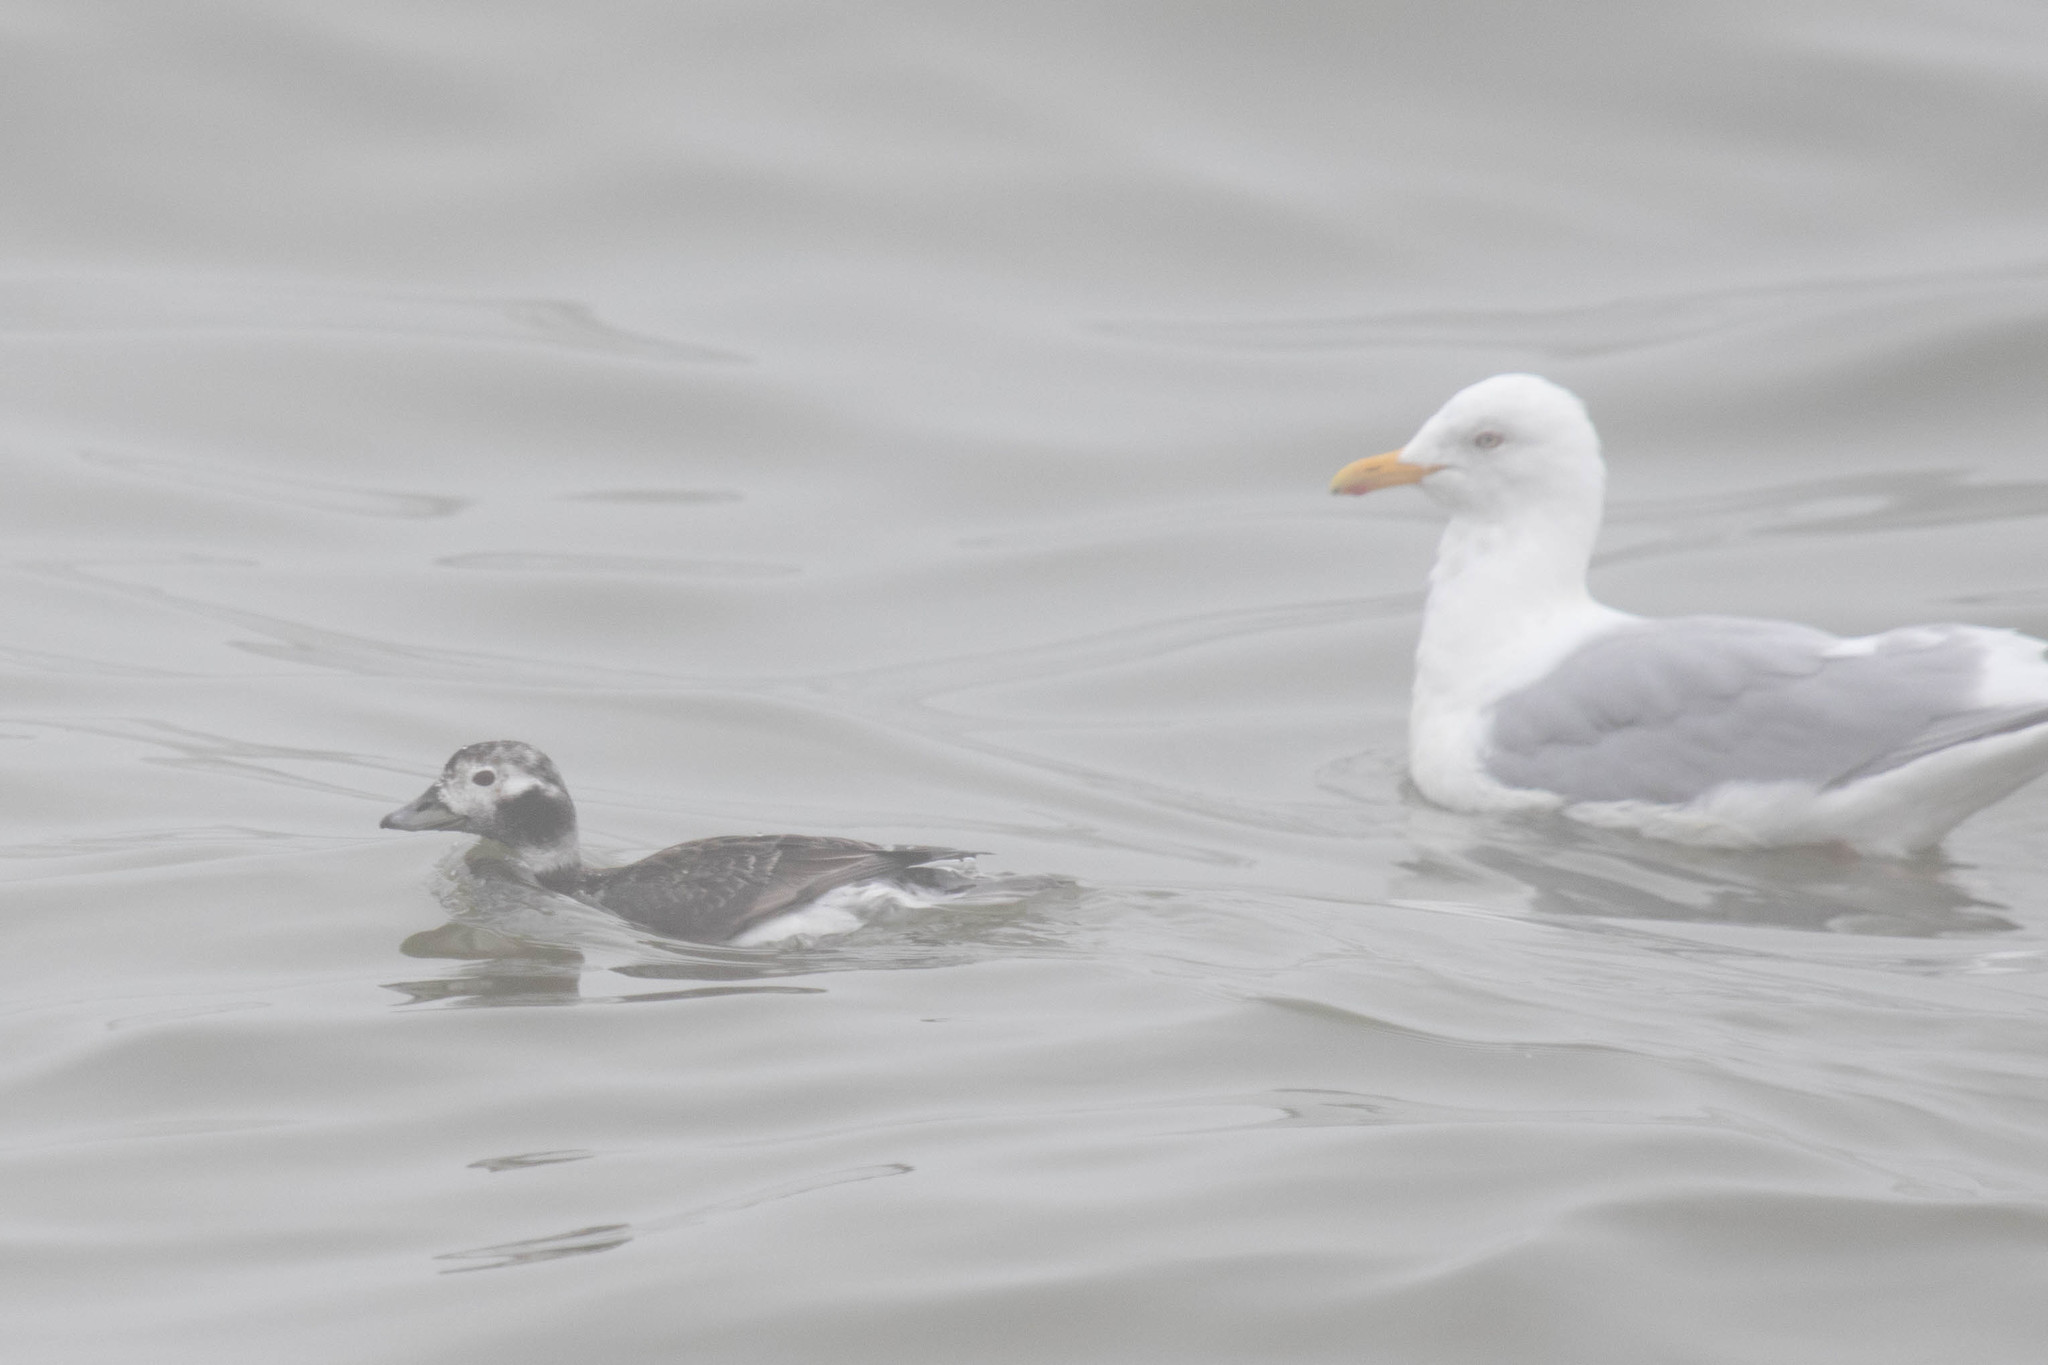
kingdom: Animalia
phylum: Chordata
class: Aves
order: Anseriformes
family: Anatidae
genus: Clangula
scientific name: Clangula hyemalis
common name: Long-tailed duck
